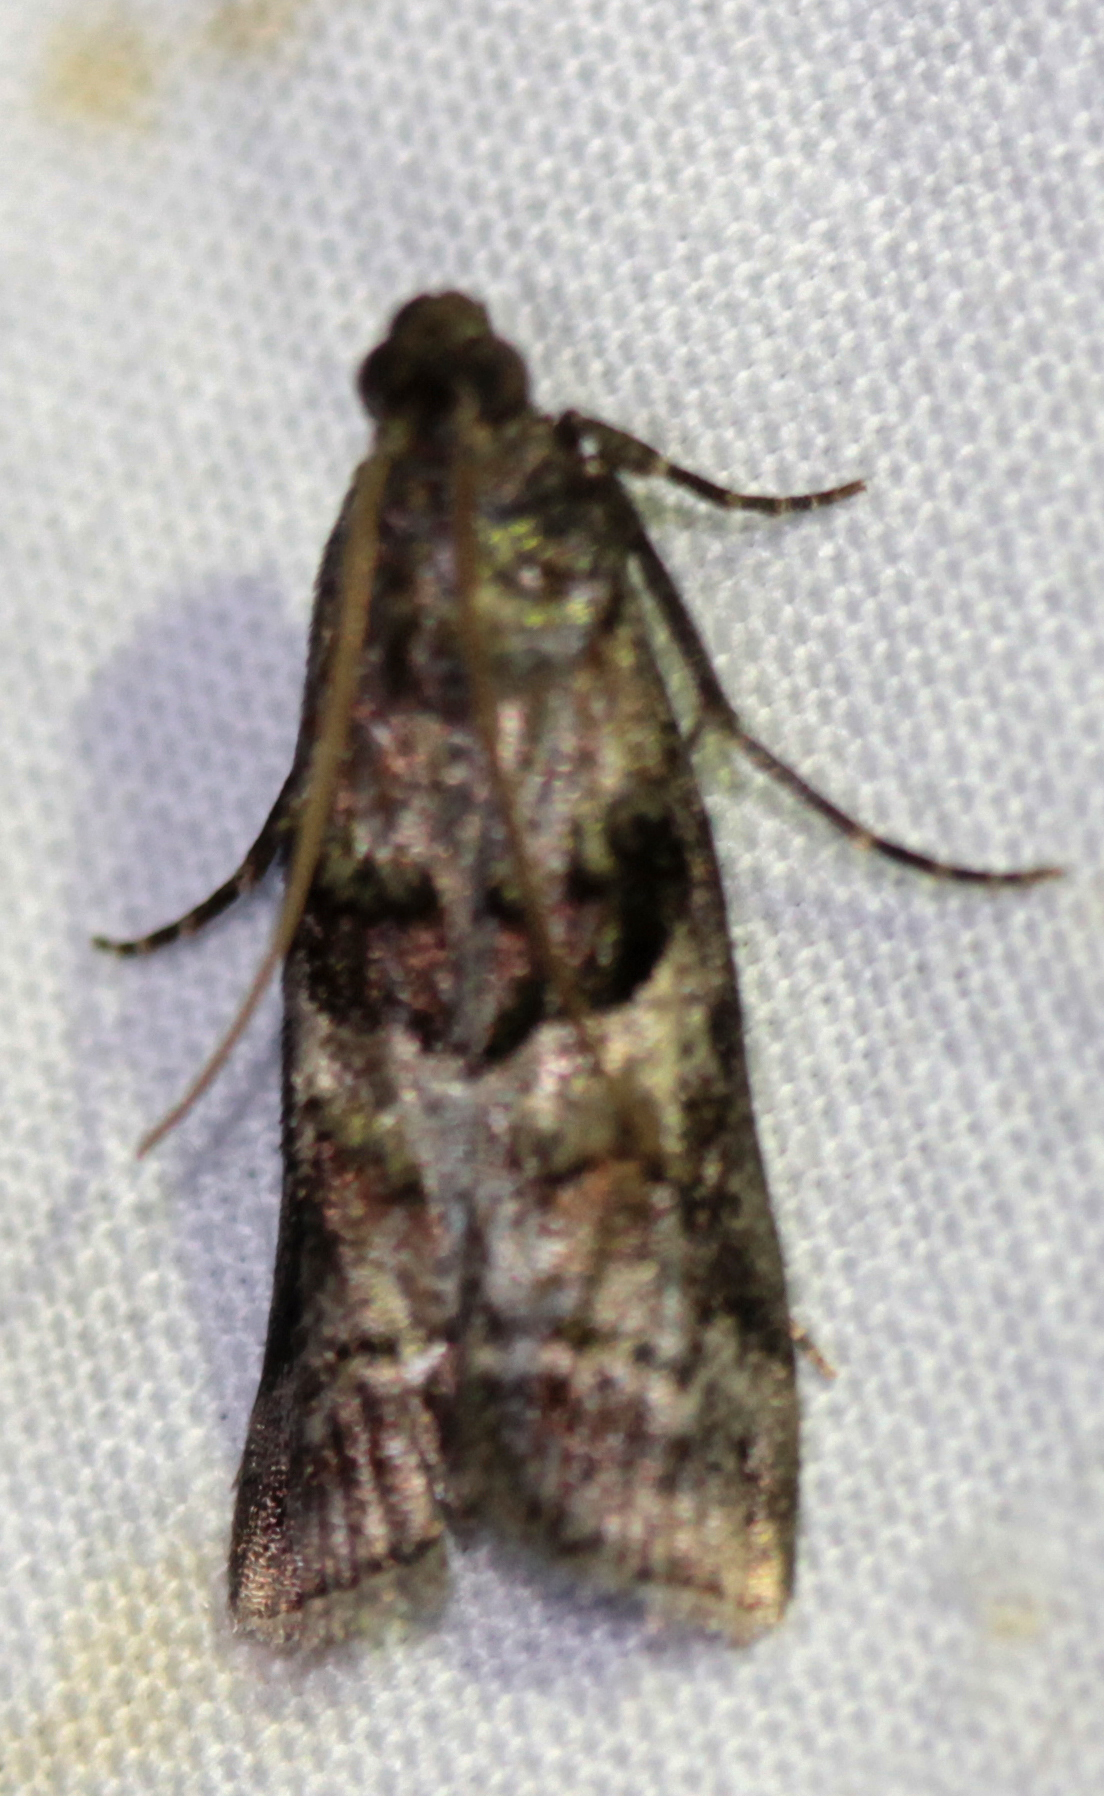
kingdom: Animalia
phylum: Arthropoda
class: Insecta
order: Lepidoptera
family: Pyralidae
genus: Pococera
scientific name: Pococera asperatella
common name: Maple webworm moth
